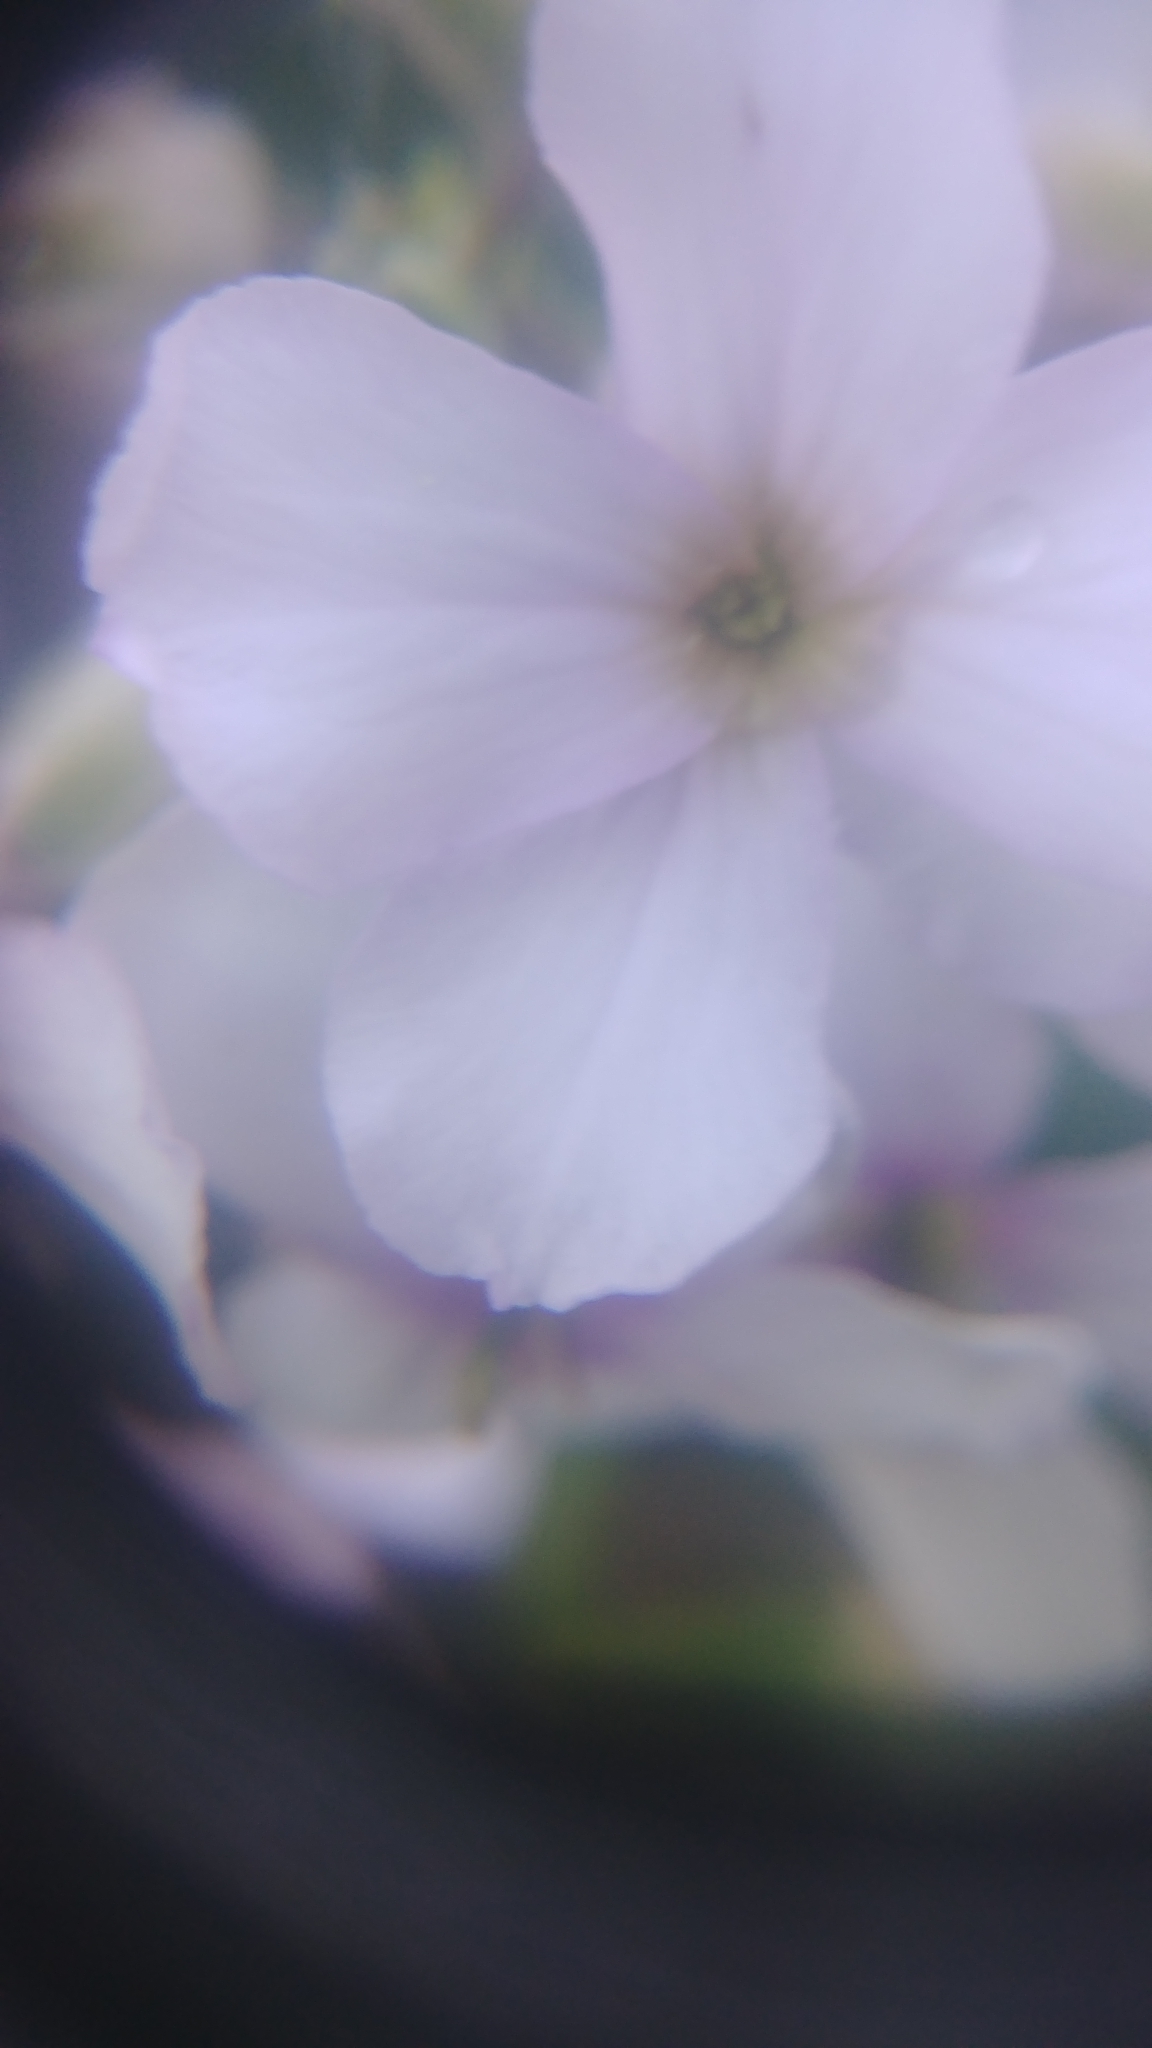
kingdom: Plantae
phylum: Tracheophyta
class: Magnoliopsida
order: Brassicales
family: Brassicaceae
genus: Hesperis
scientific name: Hesperis matronalis
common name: Dame's-violet
